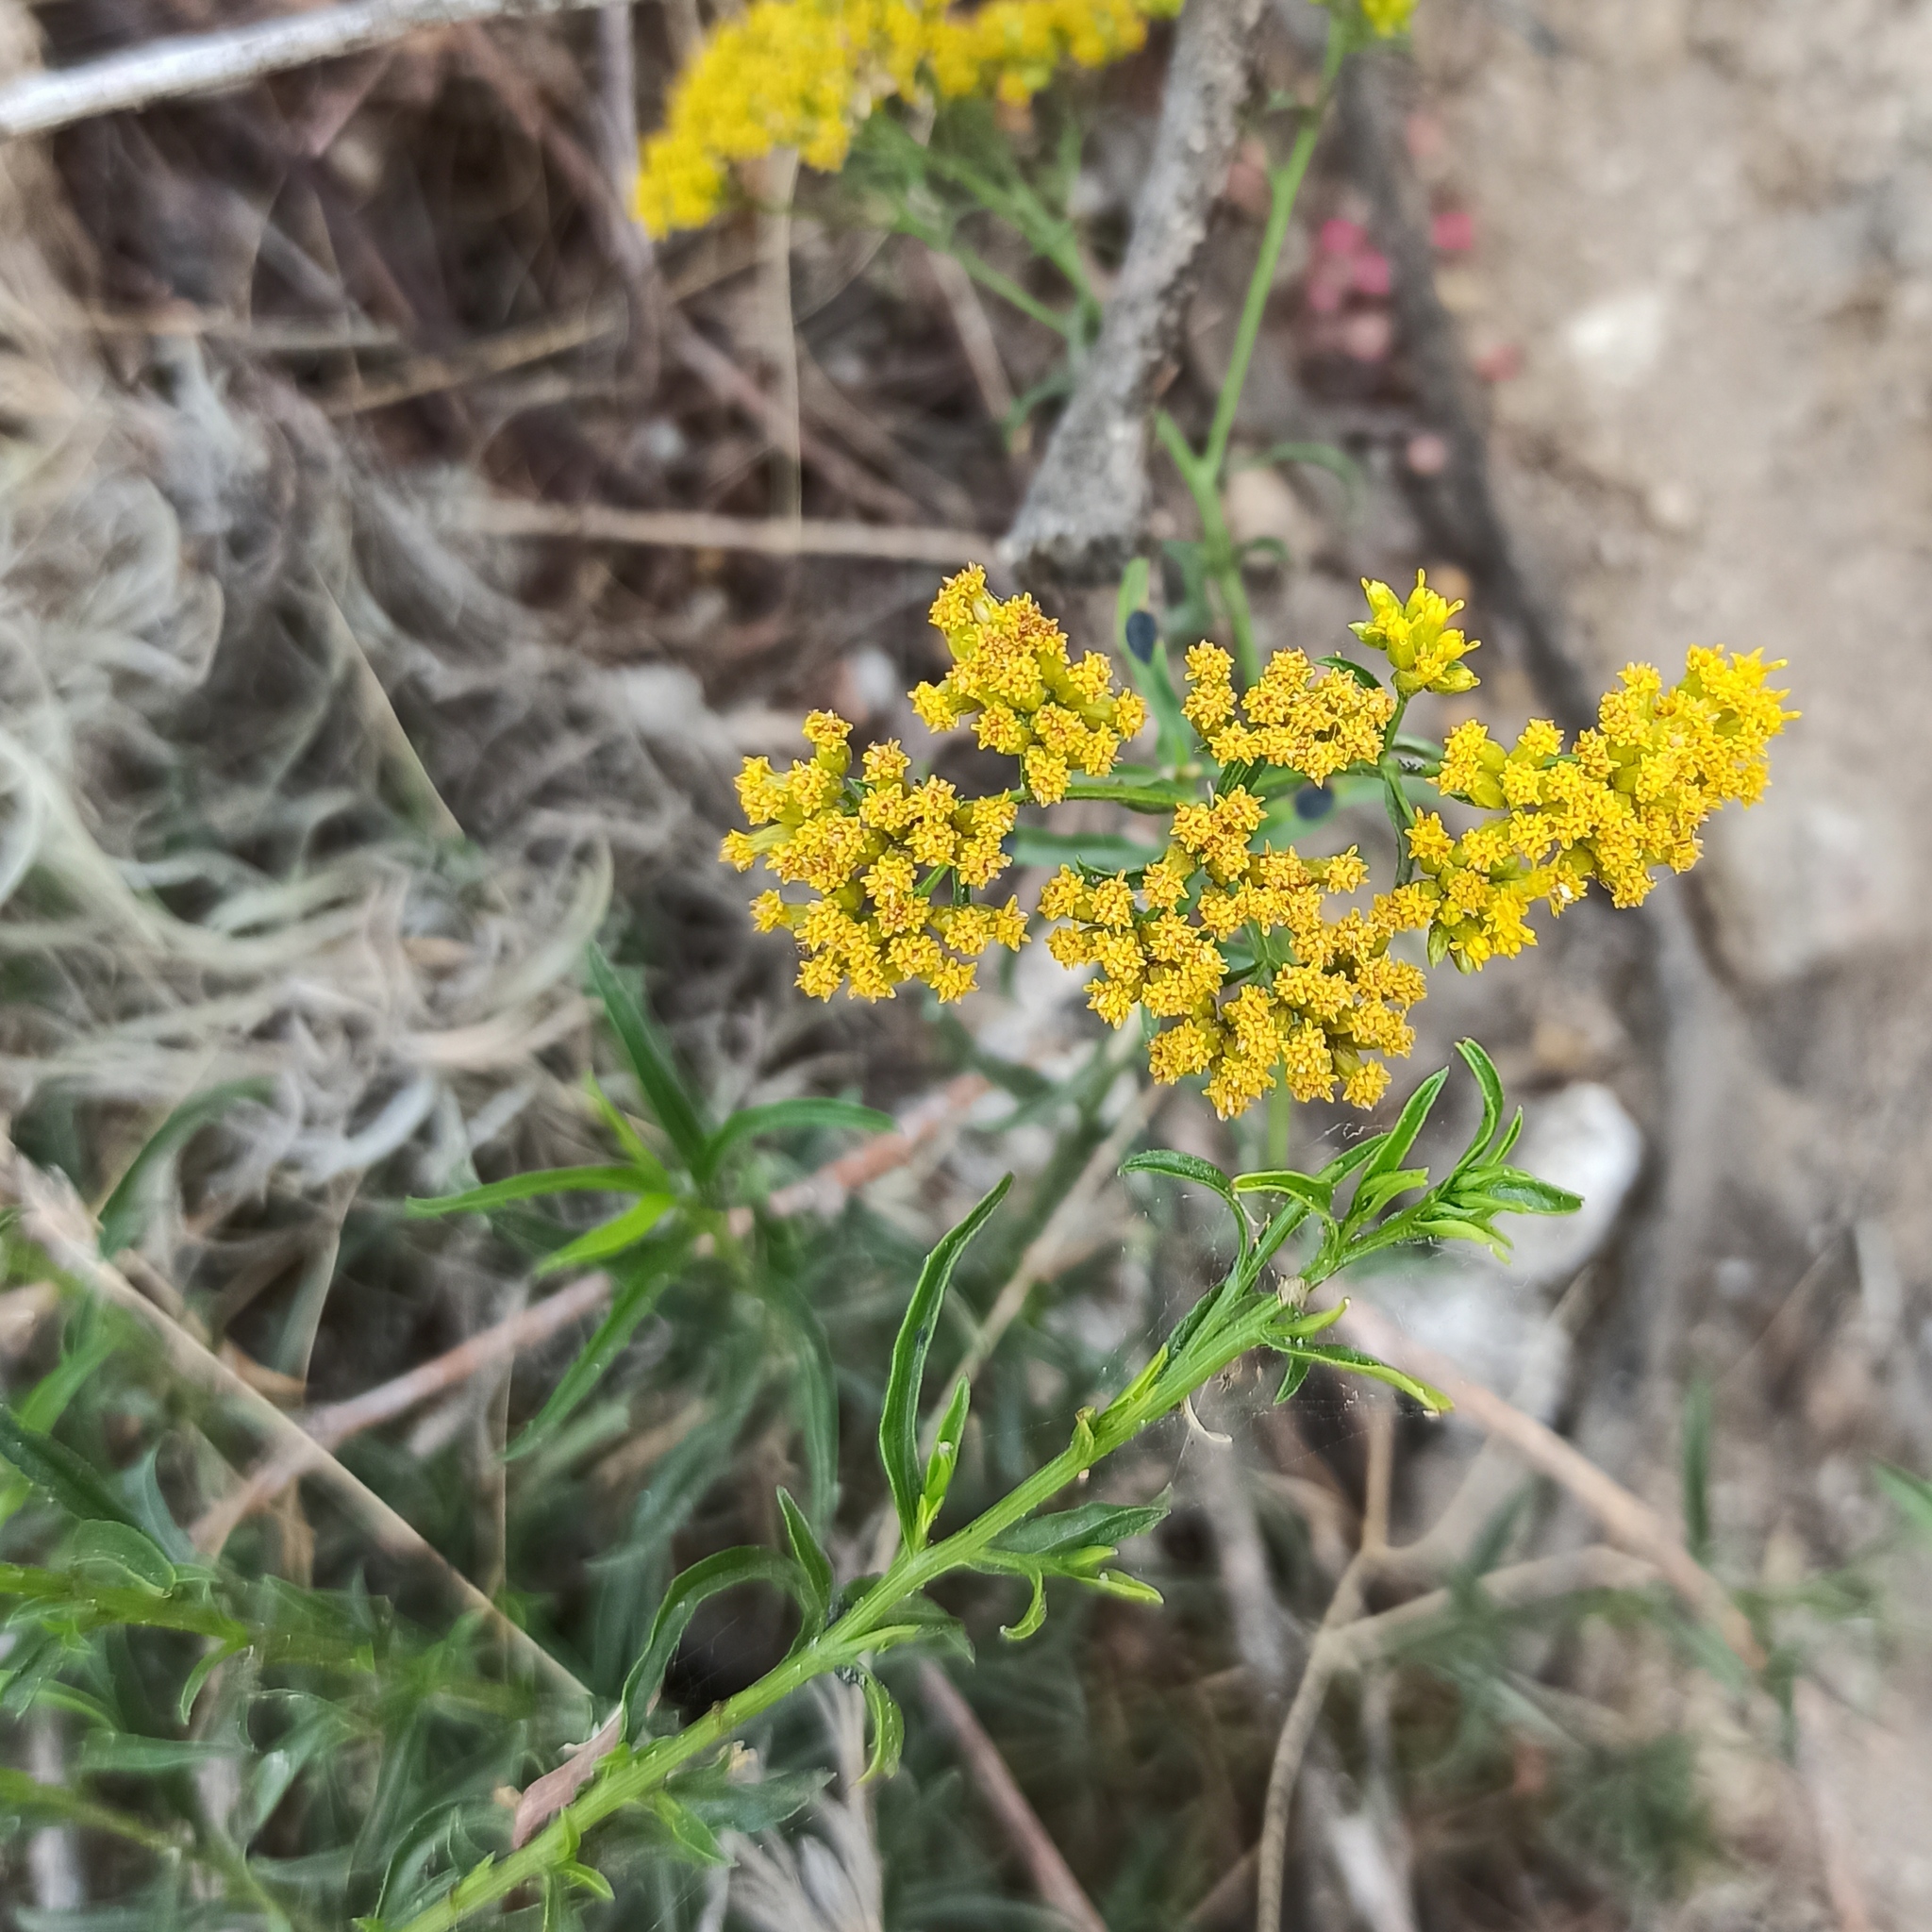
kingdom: Plantae
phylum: Tracheophyta
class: Magnoliopsida
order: Asterales
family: Asteraceae
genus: Gymnosperma
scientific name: Gymnosperma glutinosum
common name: Gumhead
